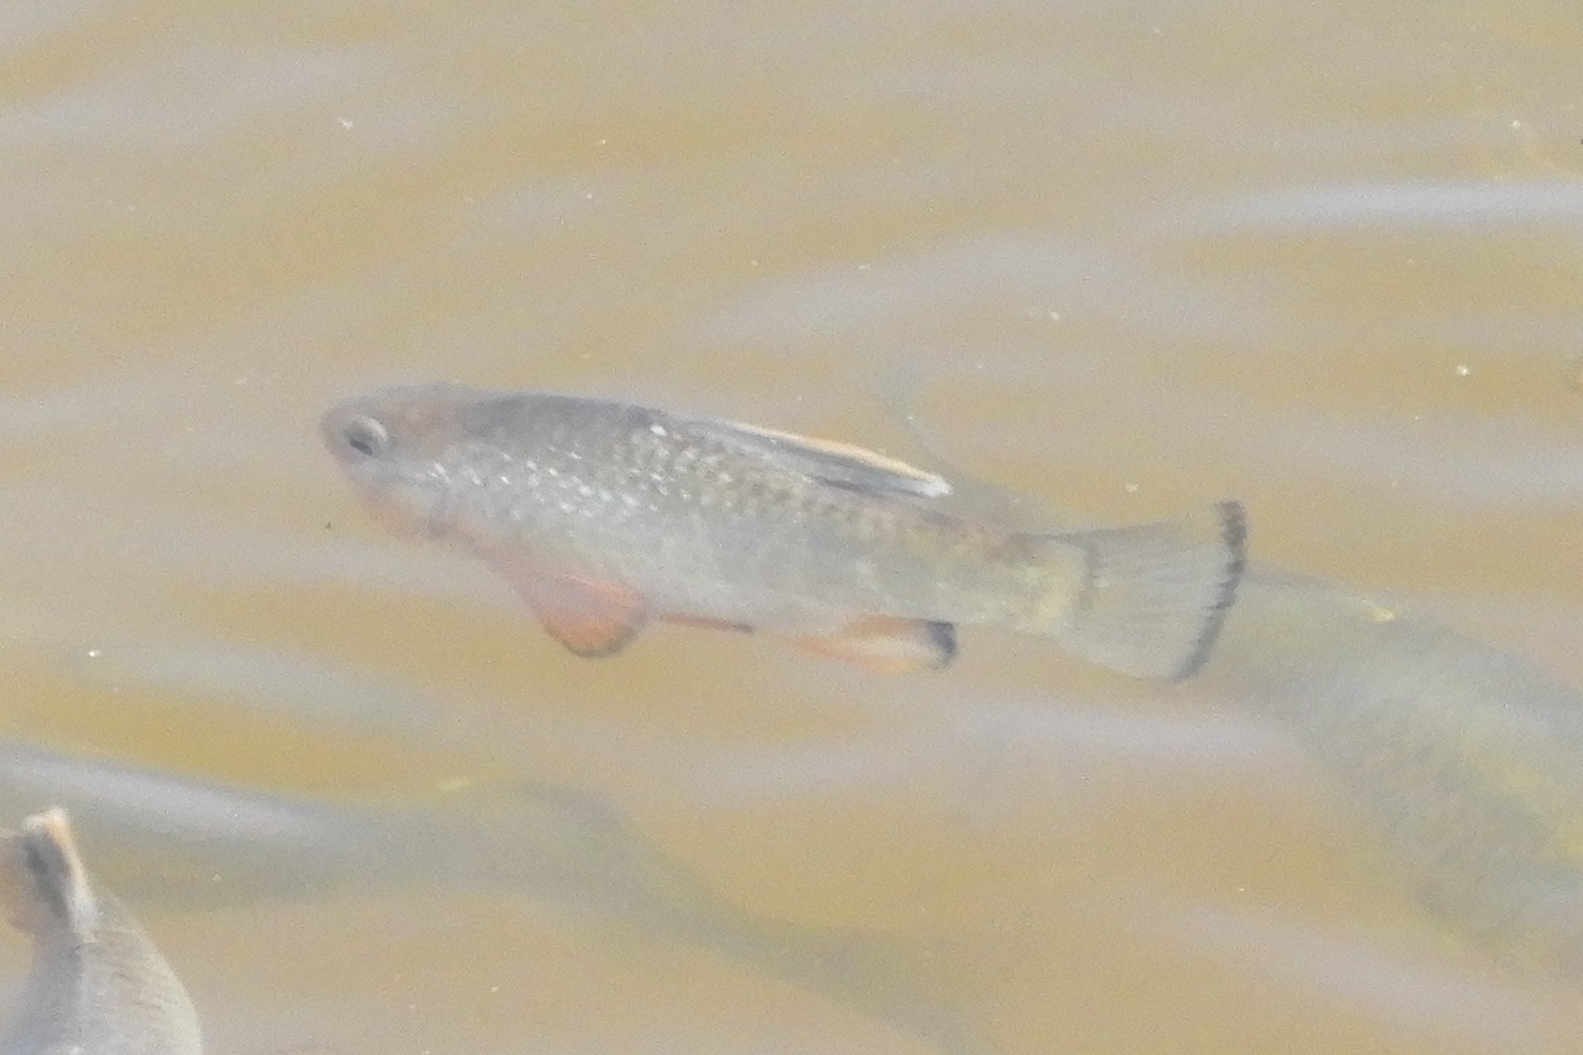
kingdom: Animalia
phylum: Chordata
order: Cyprinodontiformes
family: Cyprinodontidae
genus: Cyprinodon
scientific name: Cyprinodon variegatus
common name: Sheepshead minnow
